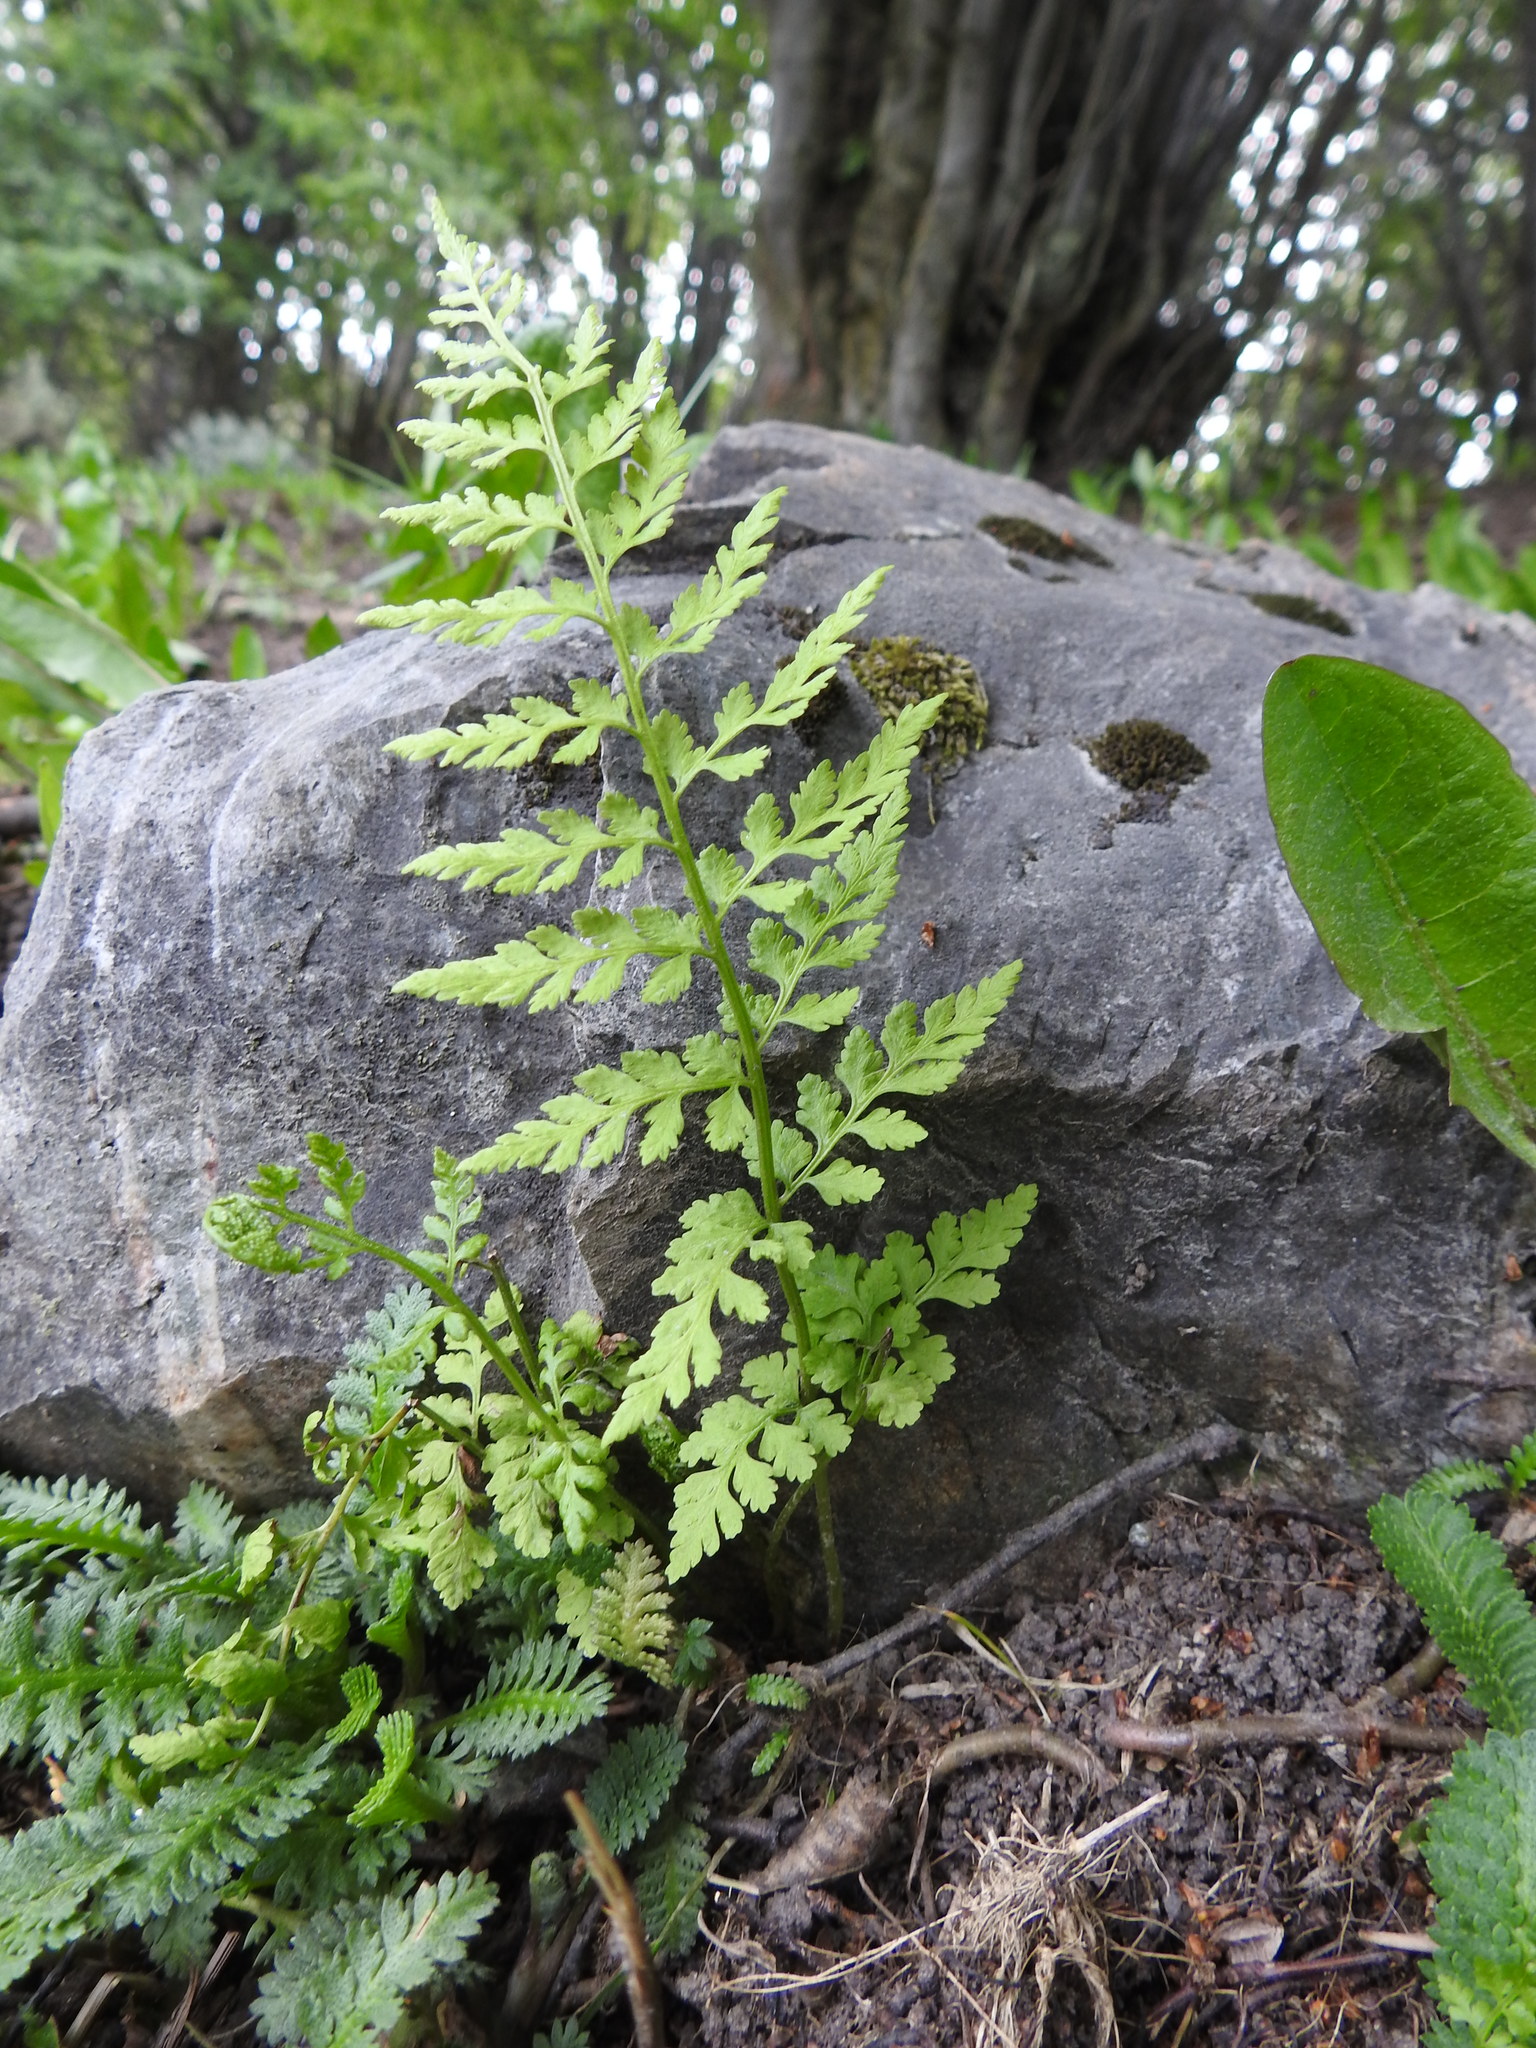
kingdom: Plantae
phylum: Tracheophyta
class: Polypodiopsida
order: Polypodiales
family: Cystopteridaceae
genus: Cystopteris
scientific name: Cystopteris fragilis
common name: Brittle bladder fern
